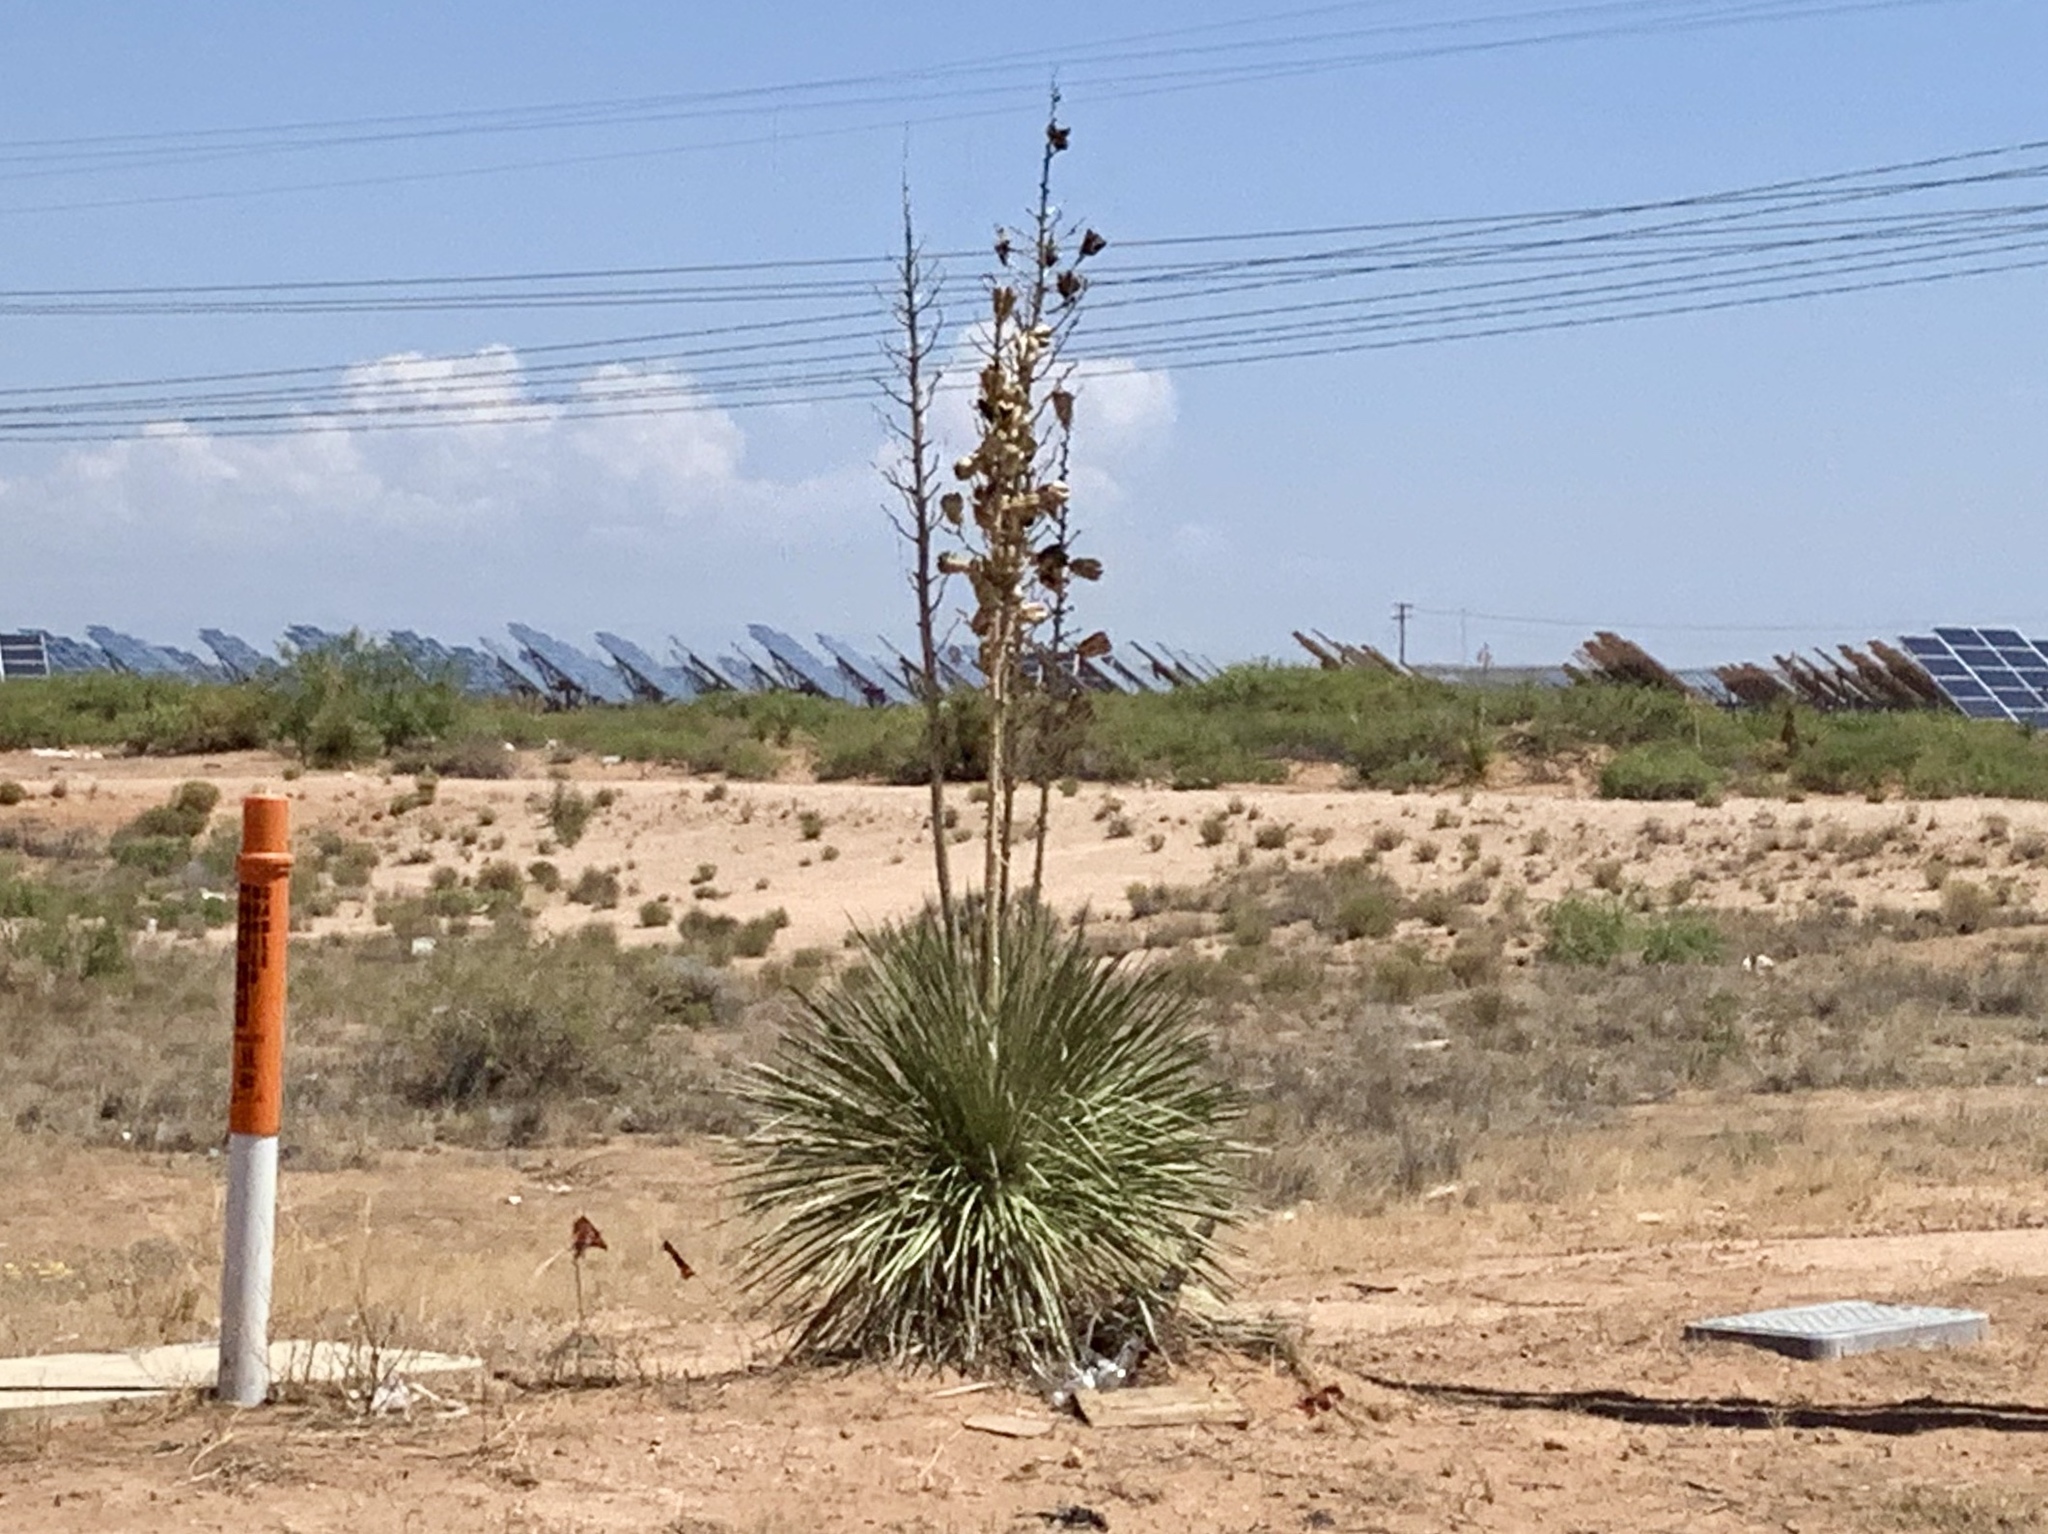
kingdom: Plantae
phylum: Tracheophyta
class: Liliopsida
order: Asparagales
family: Asparagaceae
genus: Yucca
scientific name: Yucca elata
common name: Palmella
